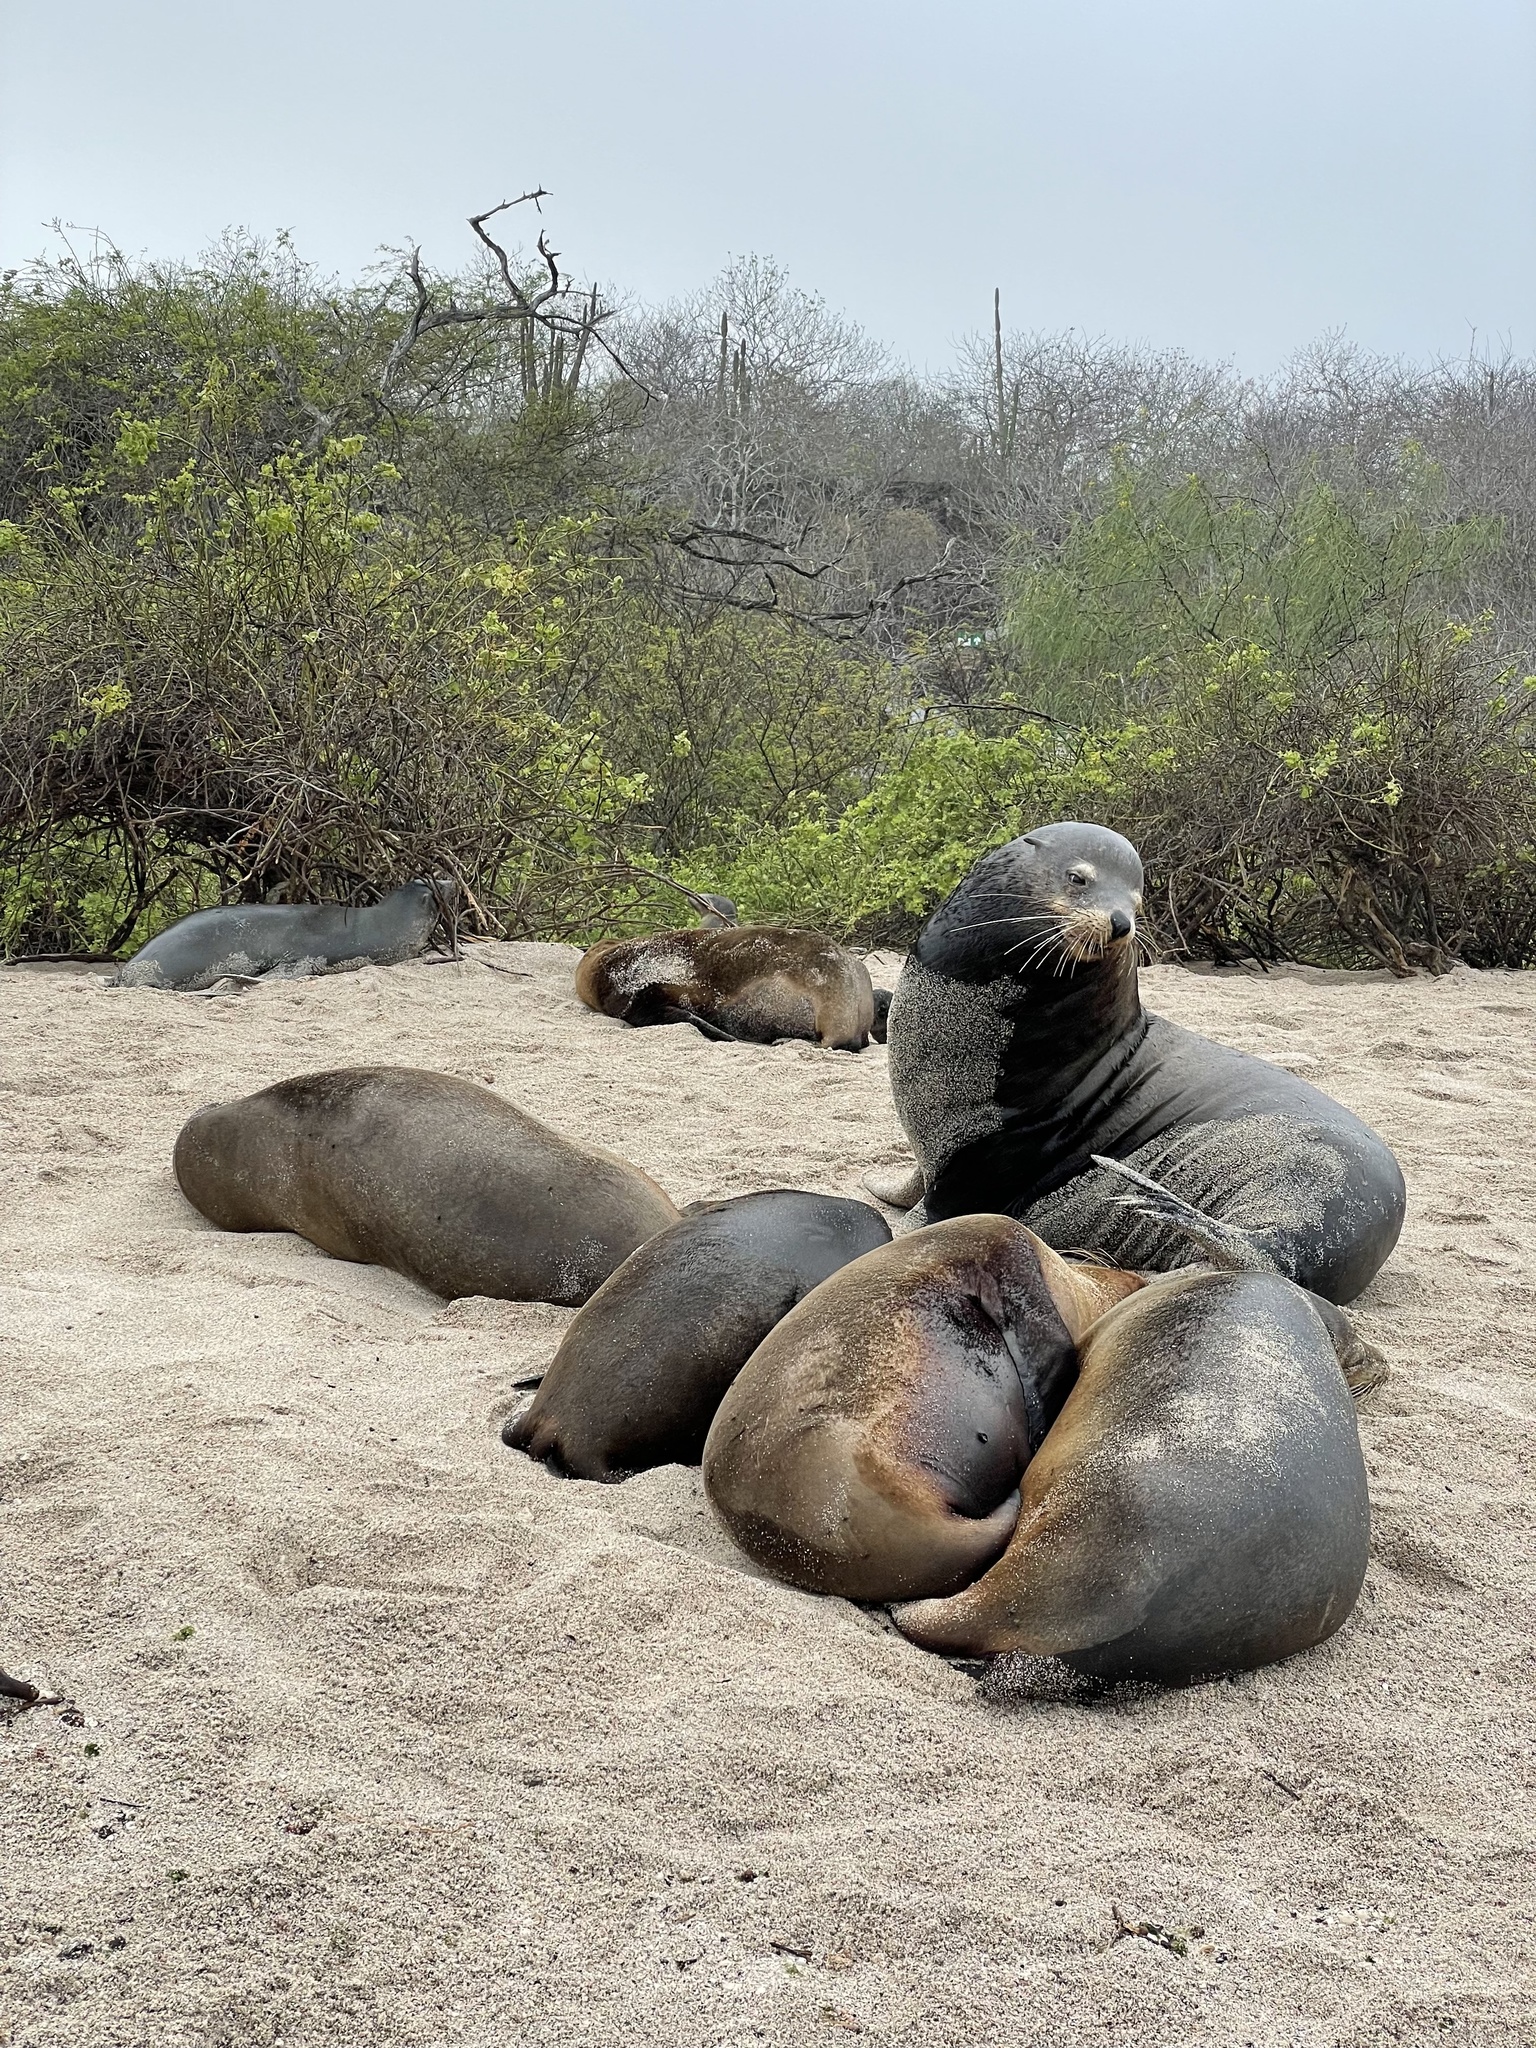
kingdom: Animalia
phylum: Chordata
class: Mammalia
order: Carnivora
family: Otariidae
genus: Zalophus
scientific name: Zalophus wollebaeki
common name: Galapagos sea lion
